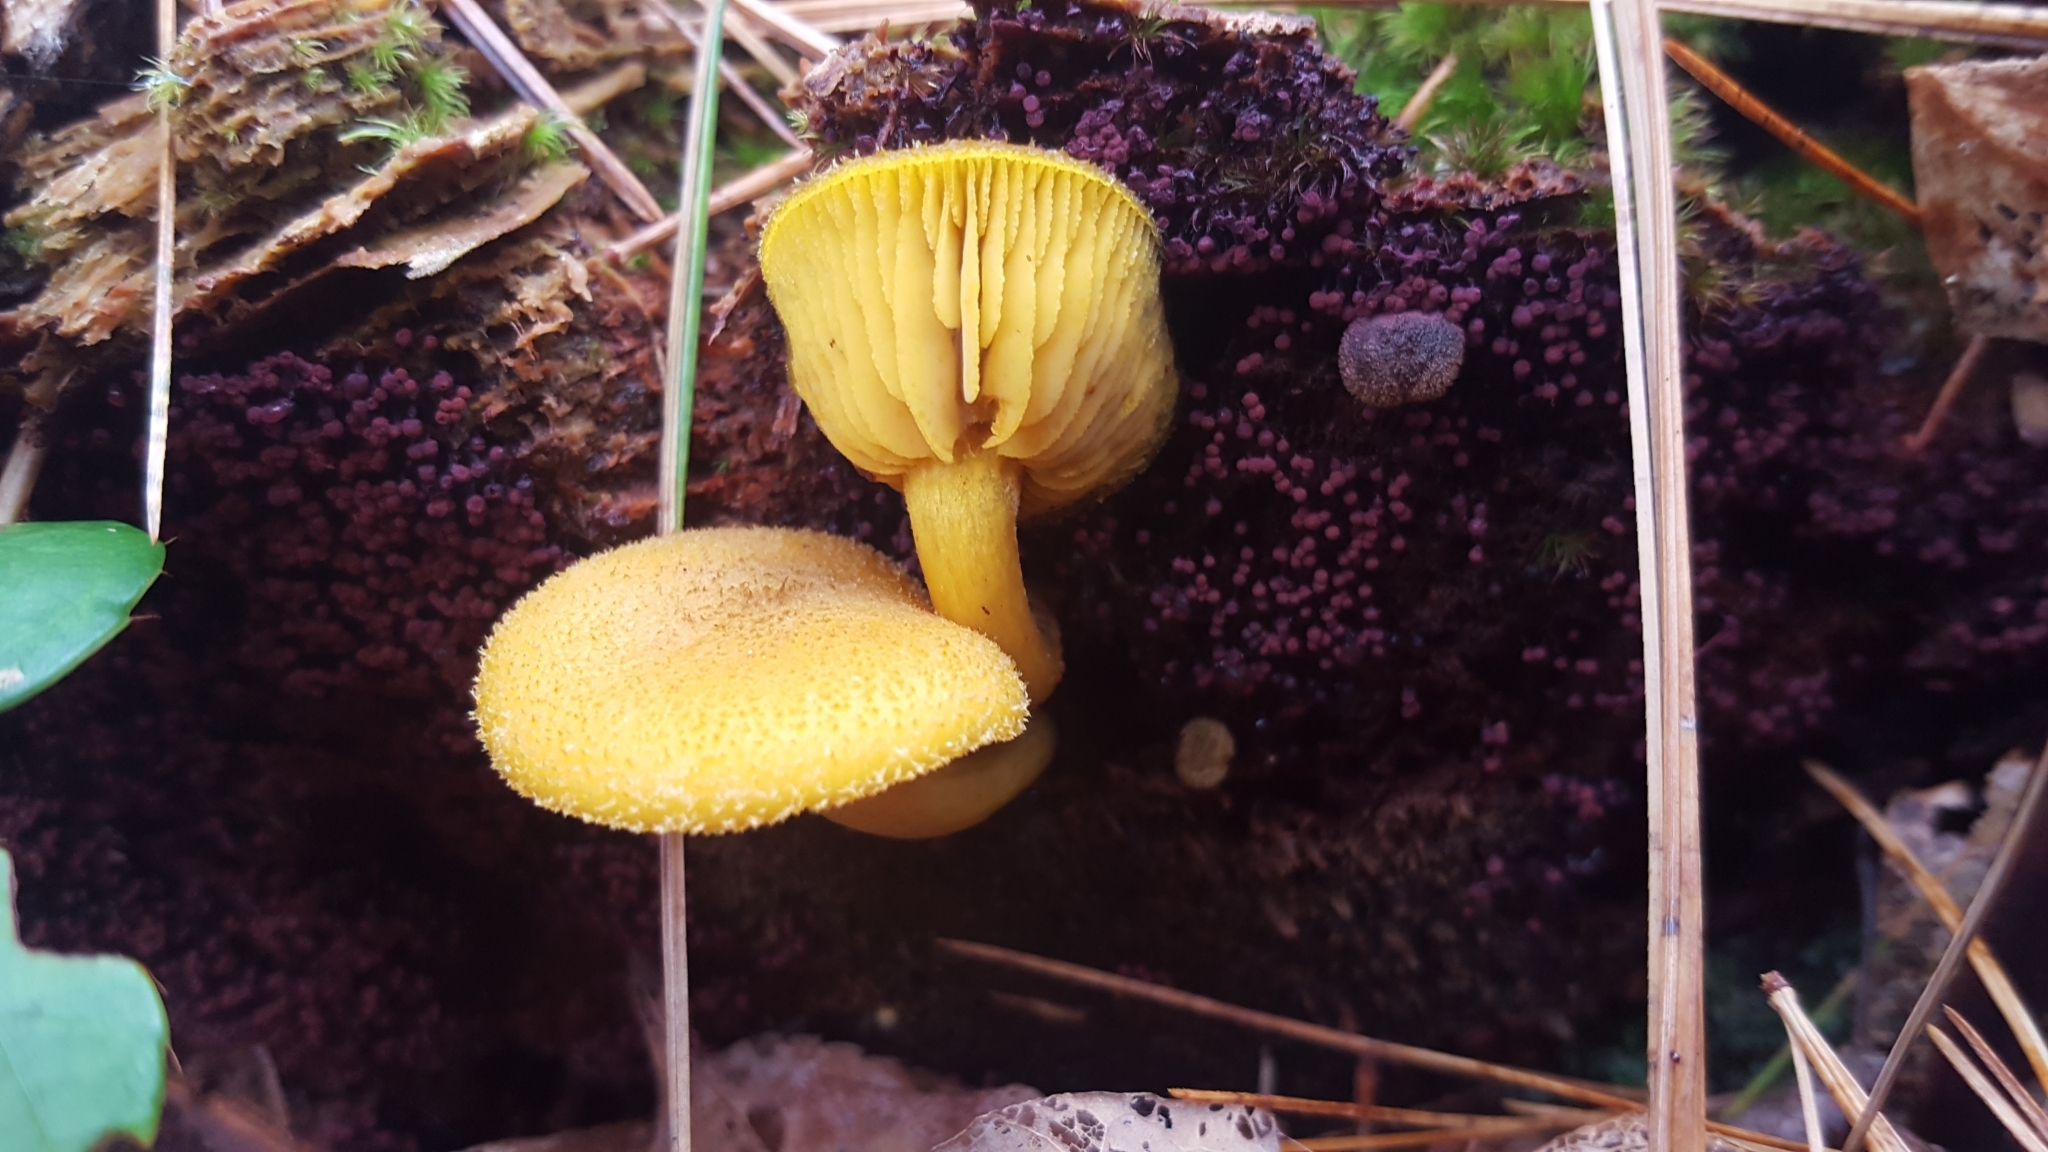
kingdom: Fungi
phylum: Basidiomycota
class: Agaricomycetes
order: Agaricales
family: Tricholomataceae
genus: Tricholomopsis
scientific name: Tricholomopsis decora
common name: Prunes and custard
